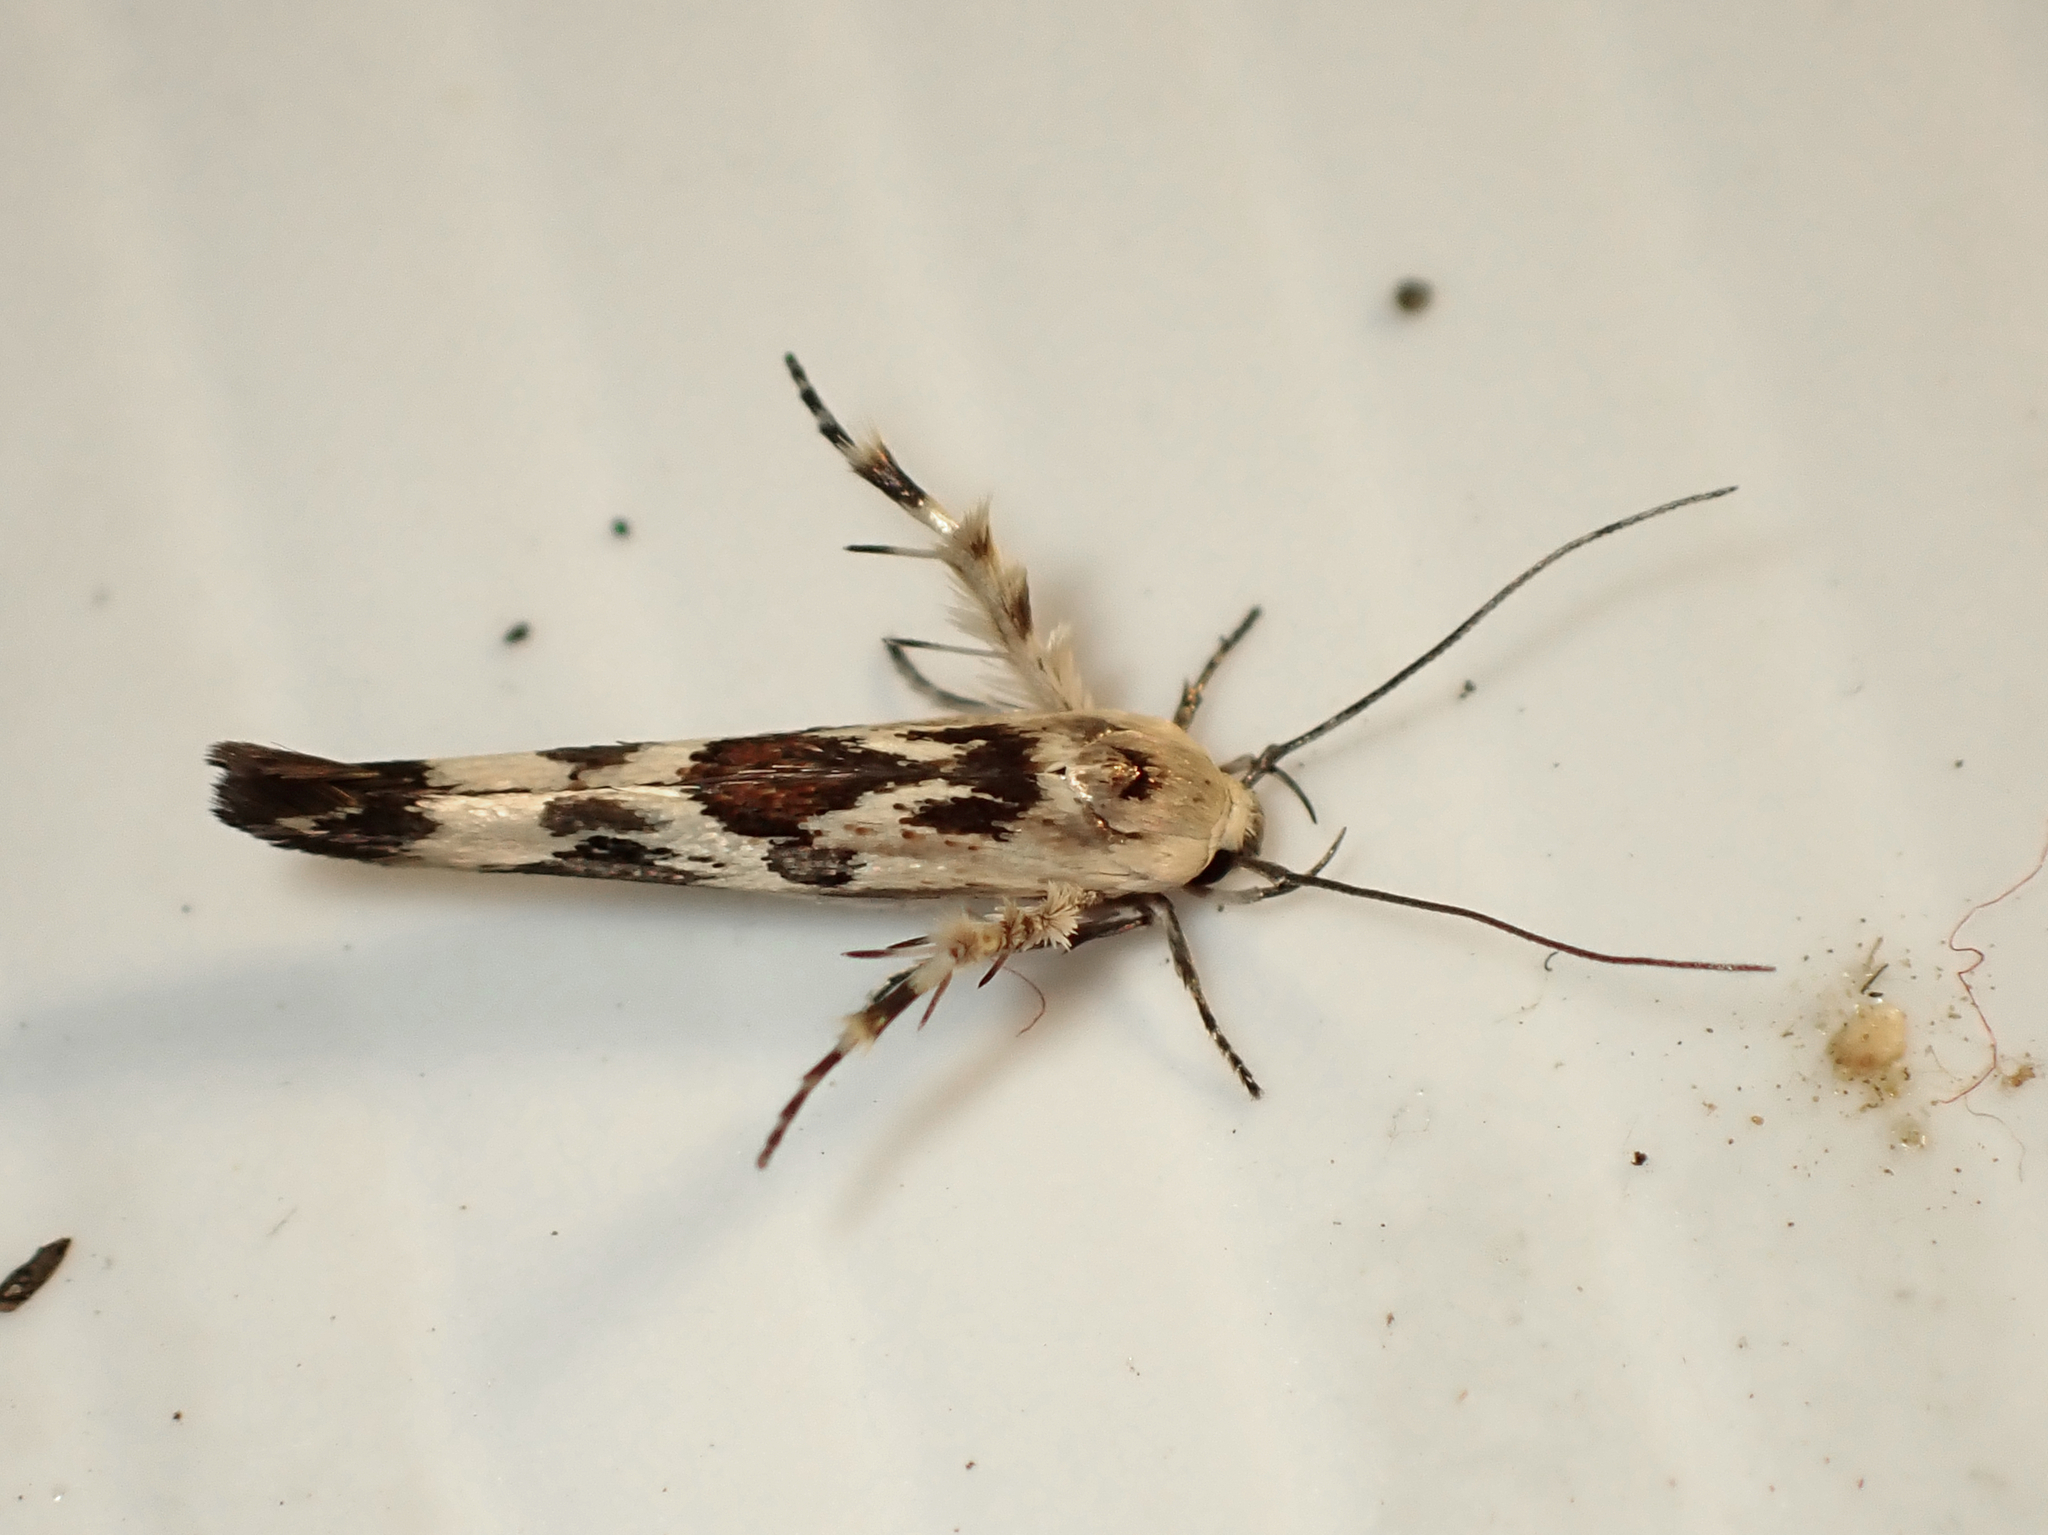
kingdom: Animalia
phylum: Arthropoda
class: Insecta
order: Lepidoptera
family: Stathmopodidae
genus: Stathmopoda
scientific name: Stathmopoda melanochra
